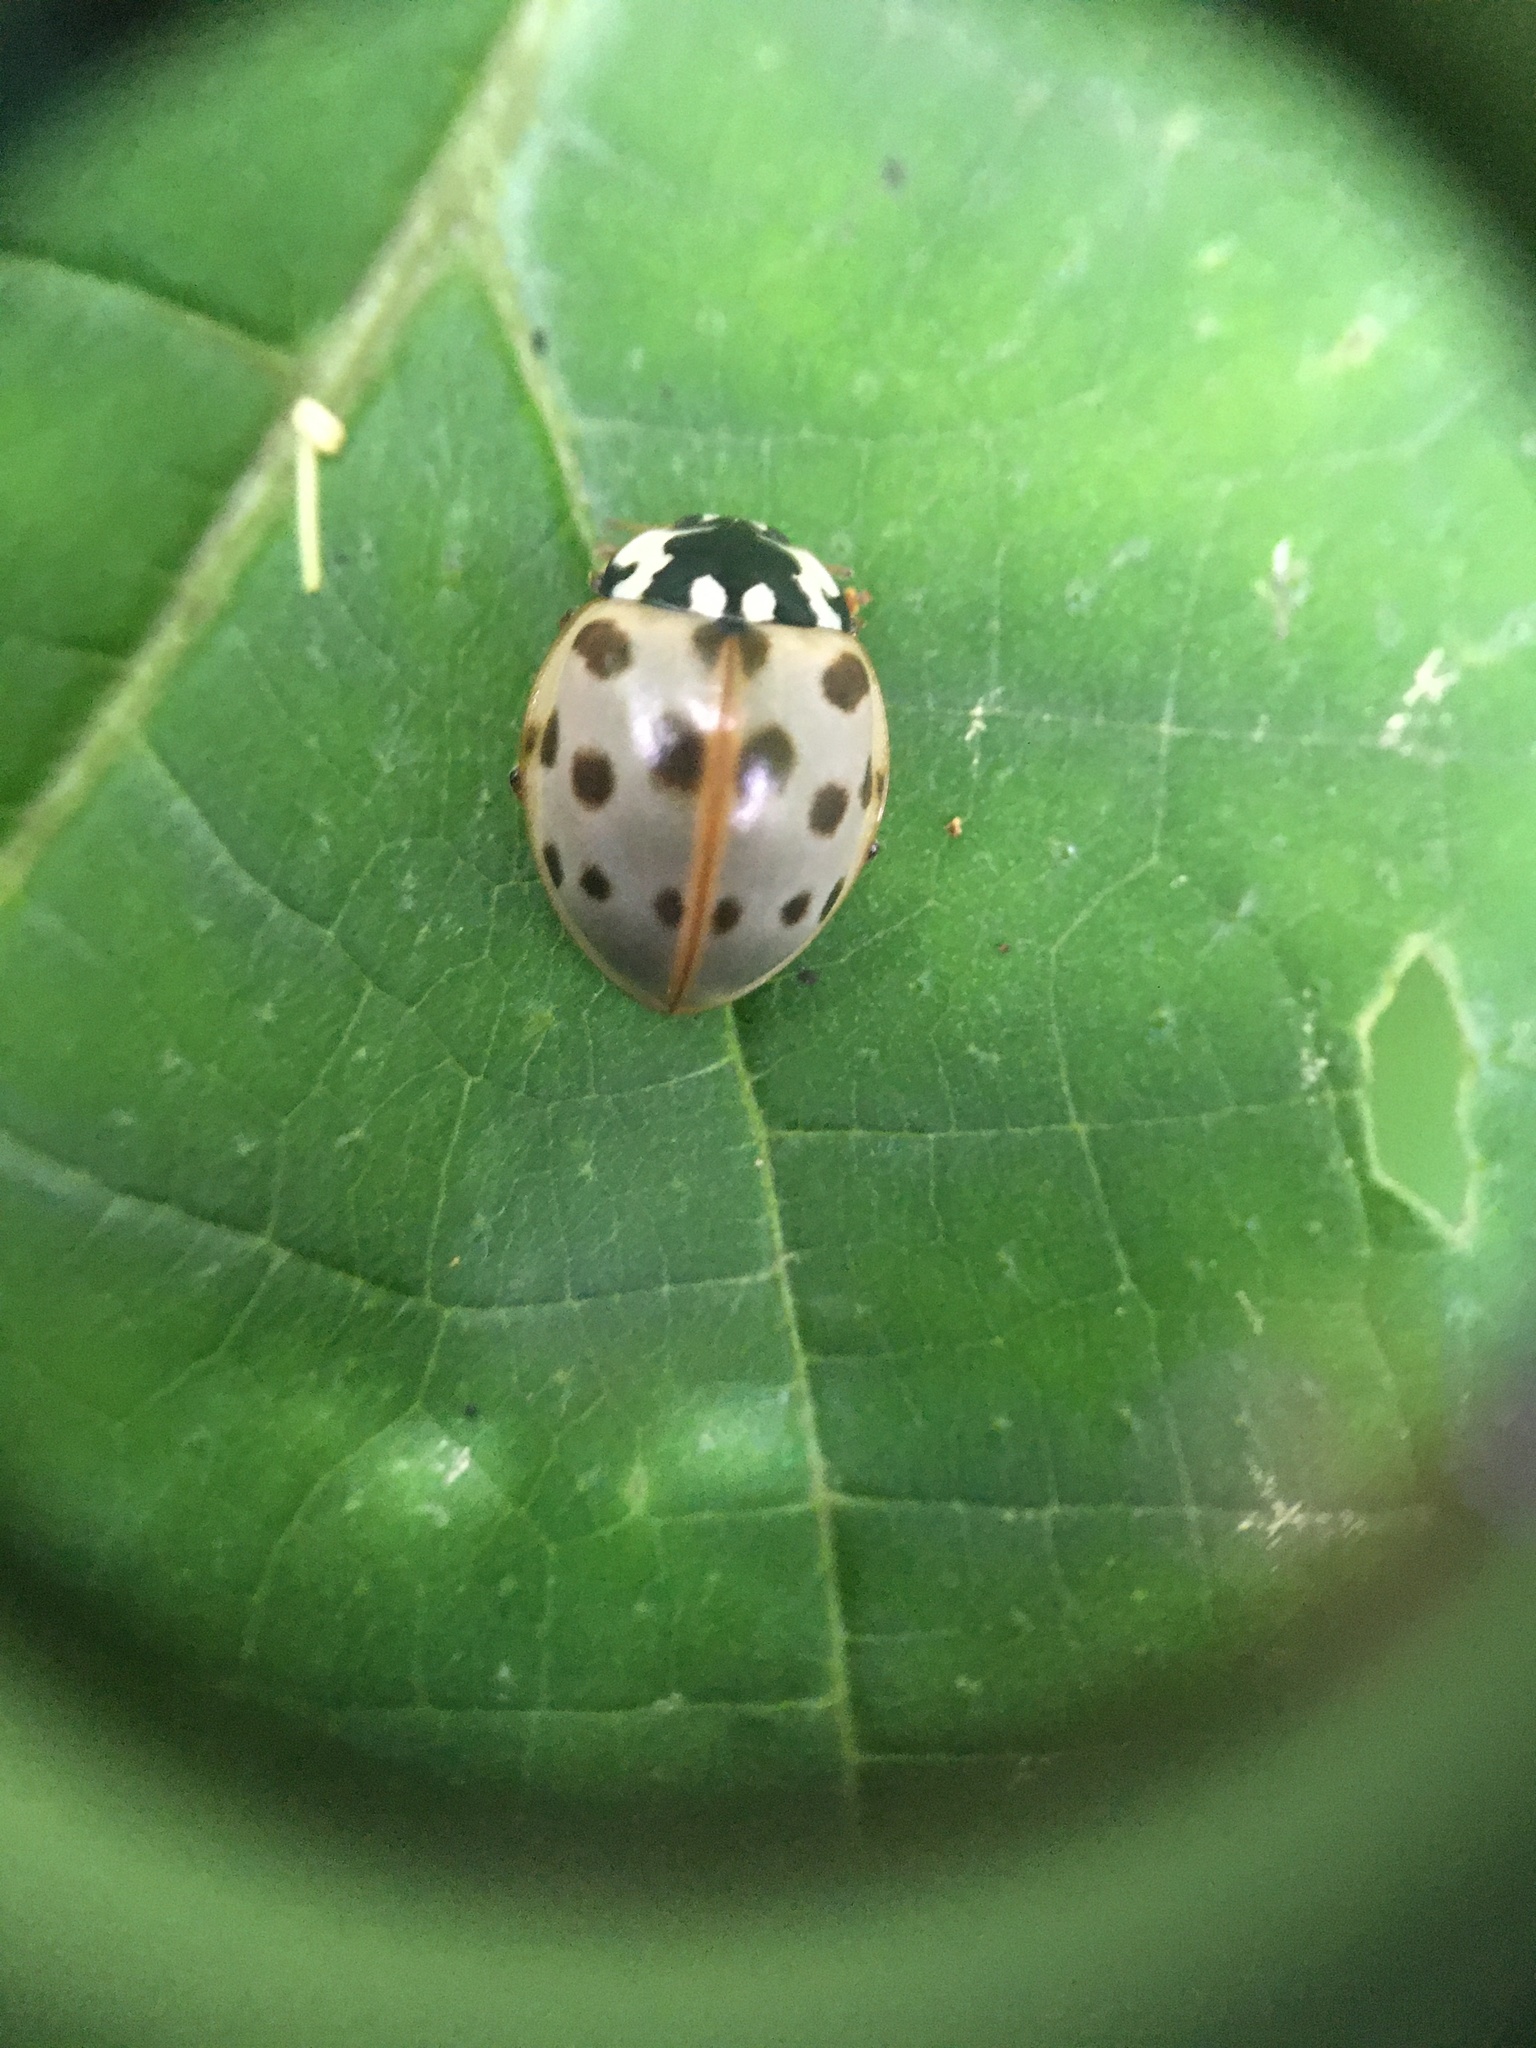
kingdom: Animalia
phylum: Arthropoda
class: Insecta
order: Coleoptera
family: Coccinellidae
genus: Anatis
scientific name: Anatis labiculata
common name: Fifteen-spotted lady beetle
